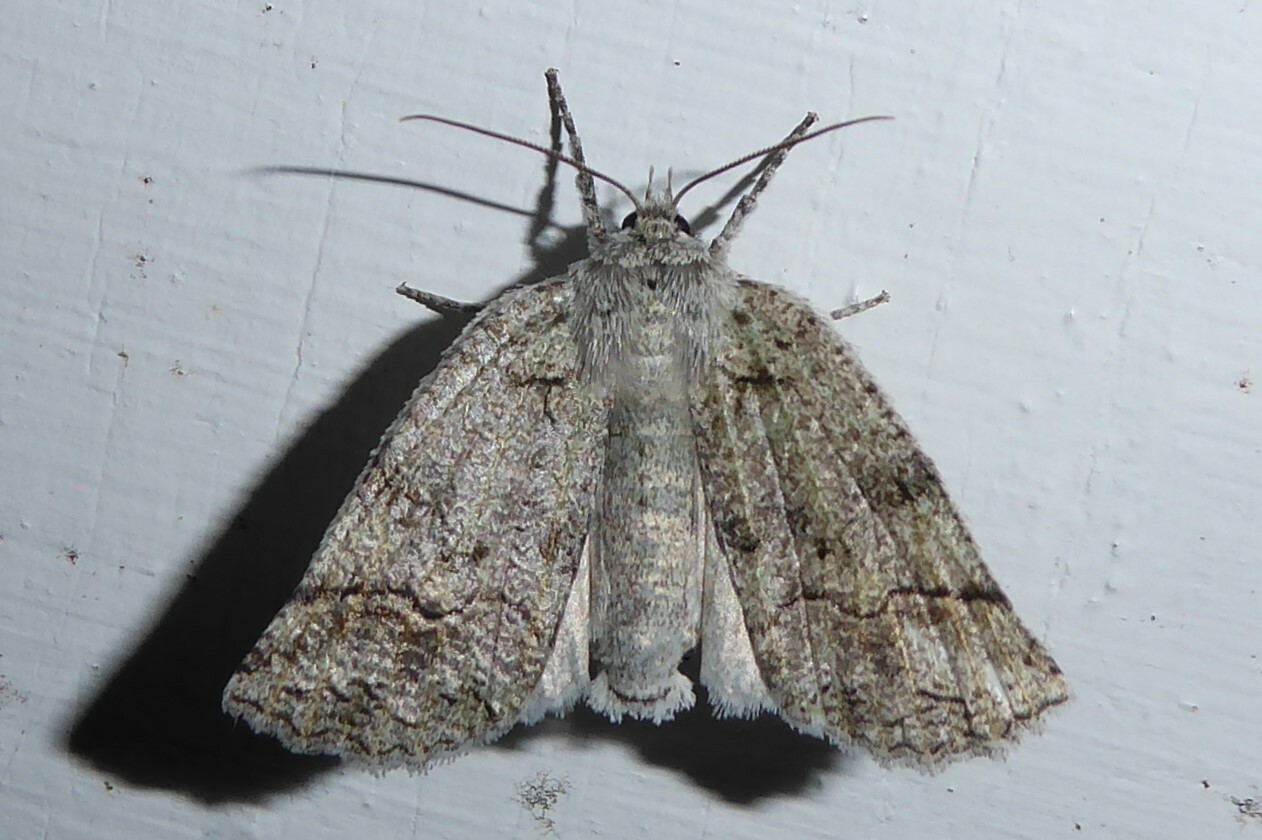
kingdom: Animalia
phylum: Arthropoda
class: Insecta
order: Lepidoptera
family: Geometridae
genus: Declana
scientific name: Declana floccosa
